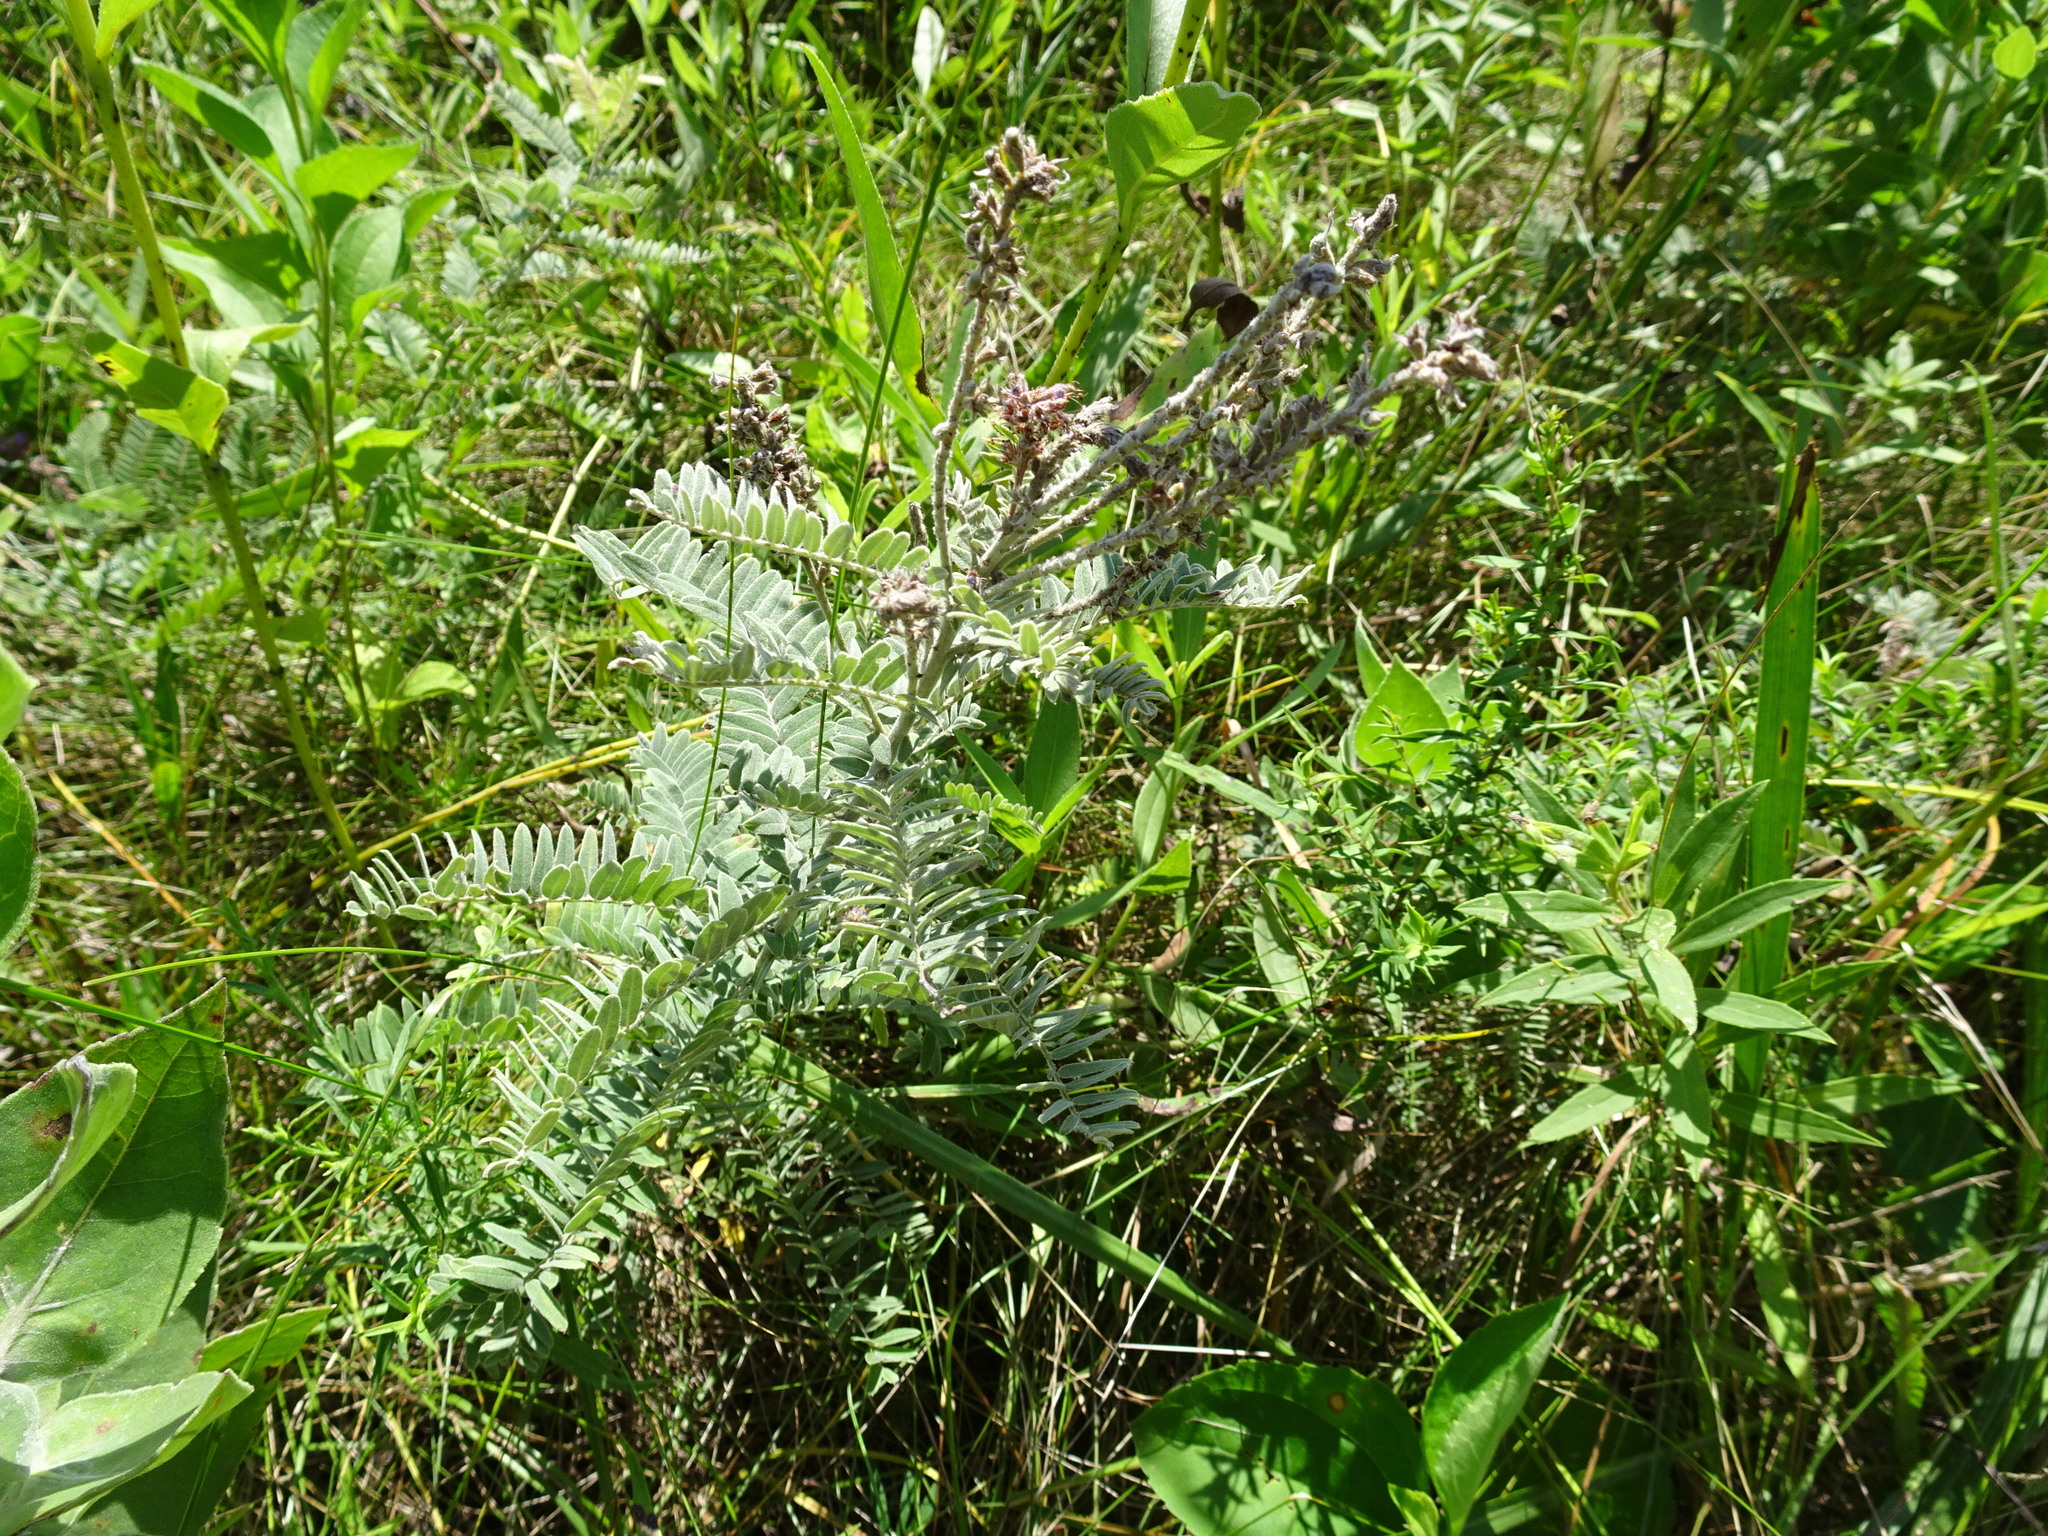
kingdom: Plantae
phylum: Tracheophyta
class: Magnoliopsida
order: Fabales
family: Fabaceae
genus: Amorpha
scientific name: Amorpha canescens
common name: Leadplant
